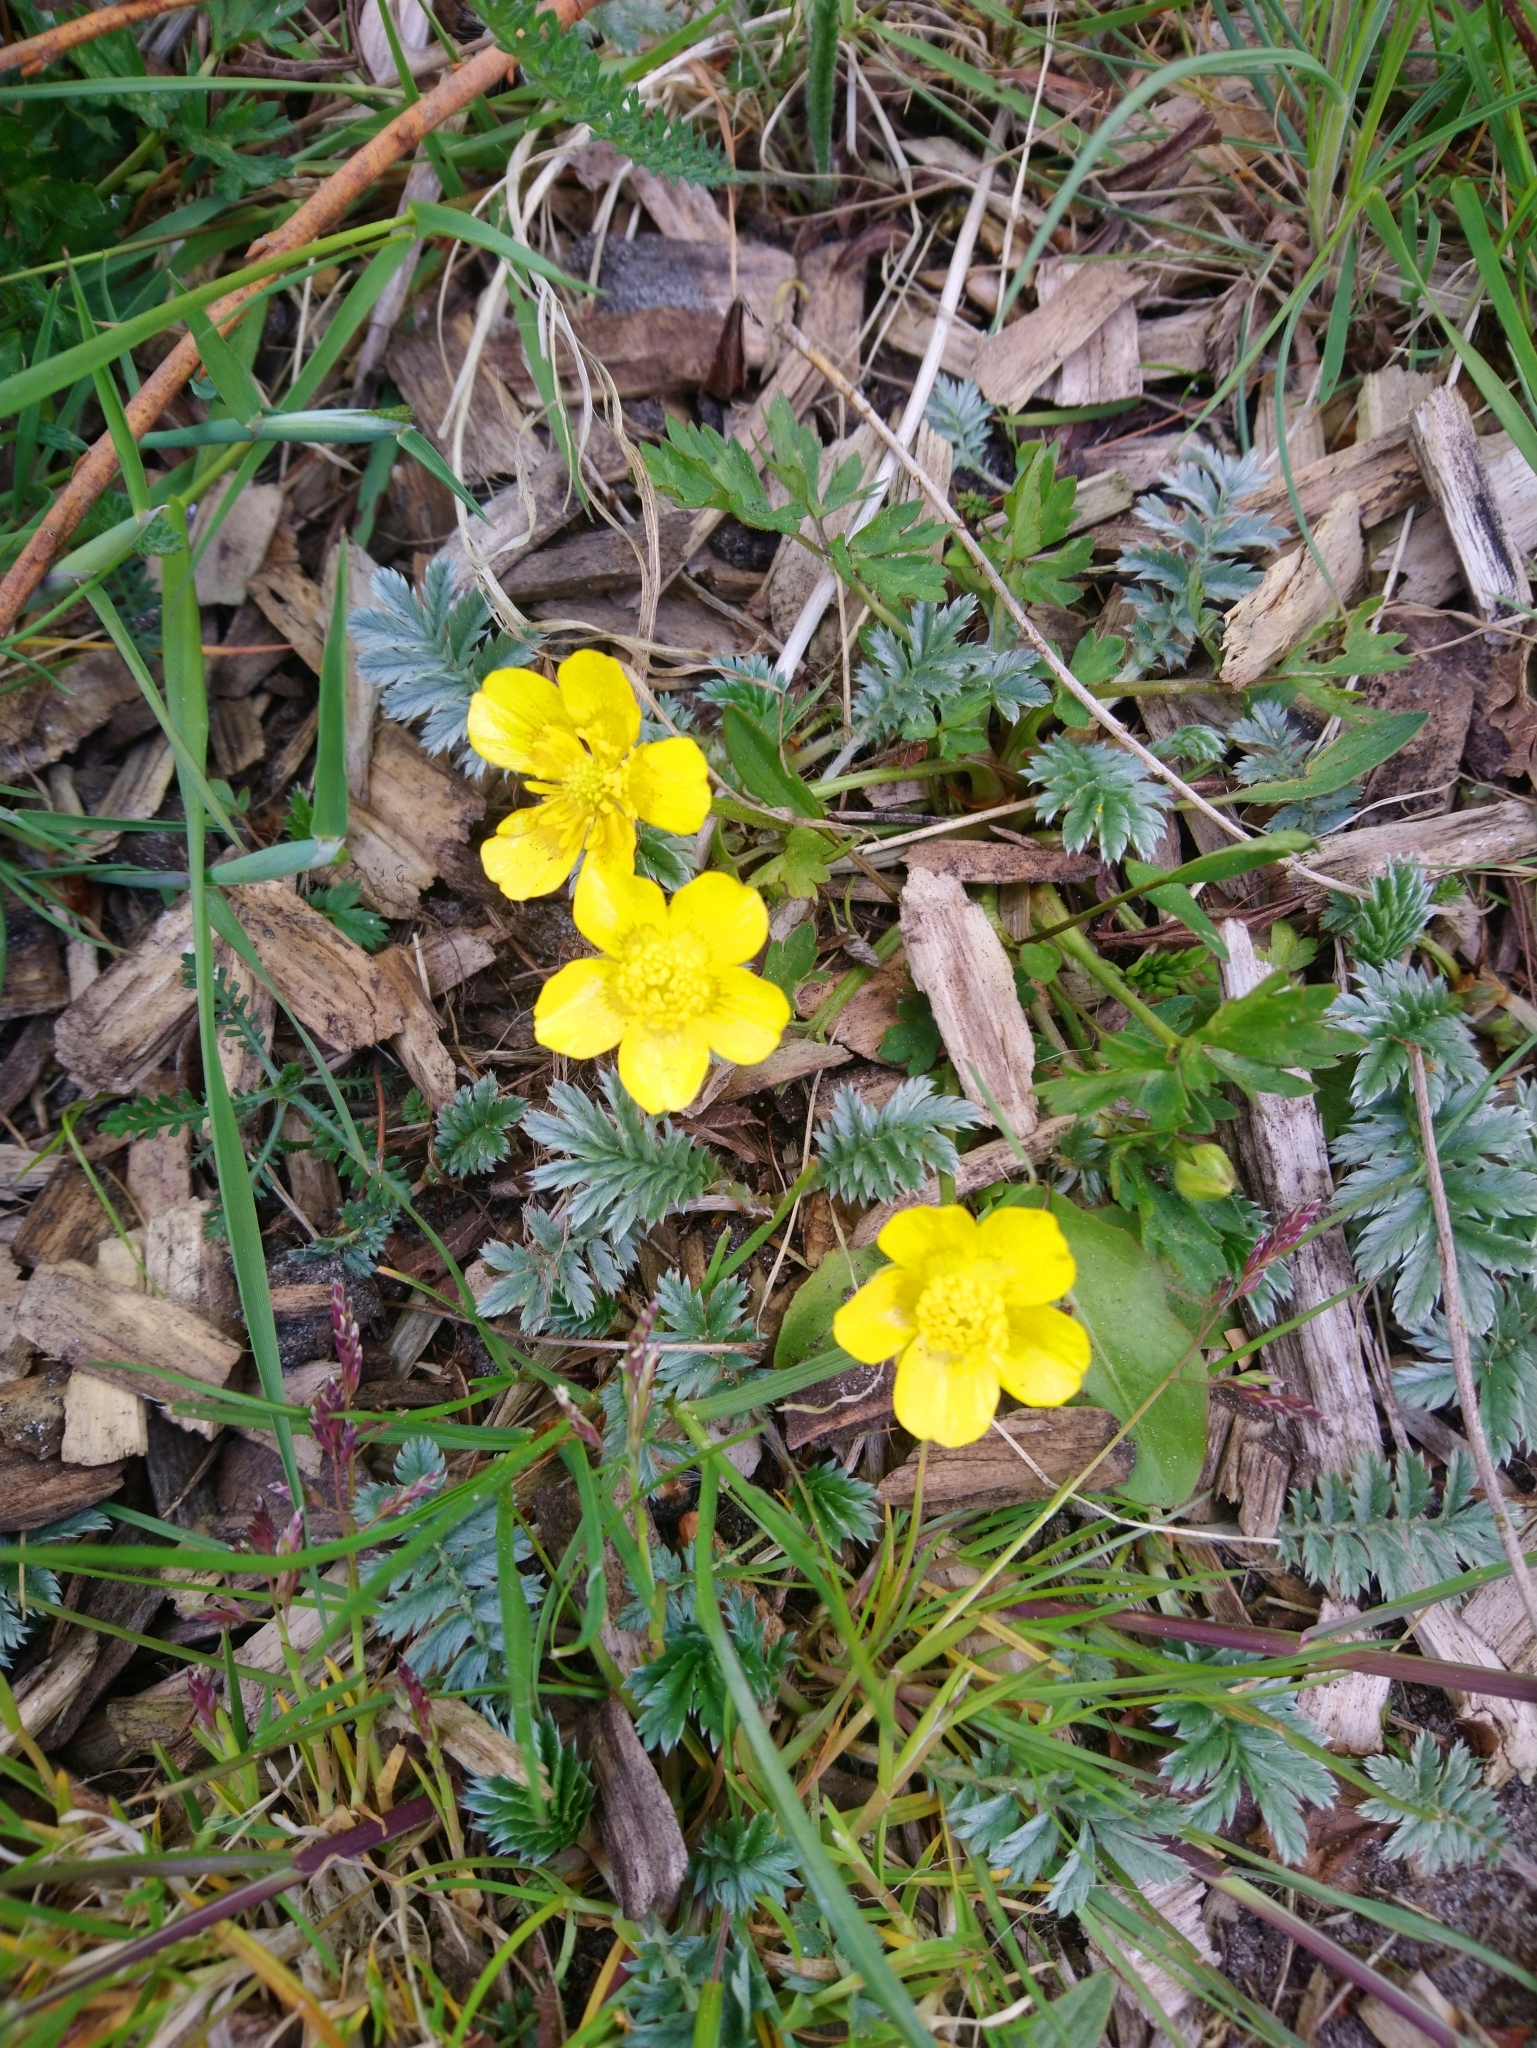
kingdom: Plantae
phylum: Tracheophyta
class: Magnoliopsida
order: Rosales
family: Rosaceae
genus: Argentina
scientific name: Argentina anserina
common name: Common silverweed
